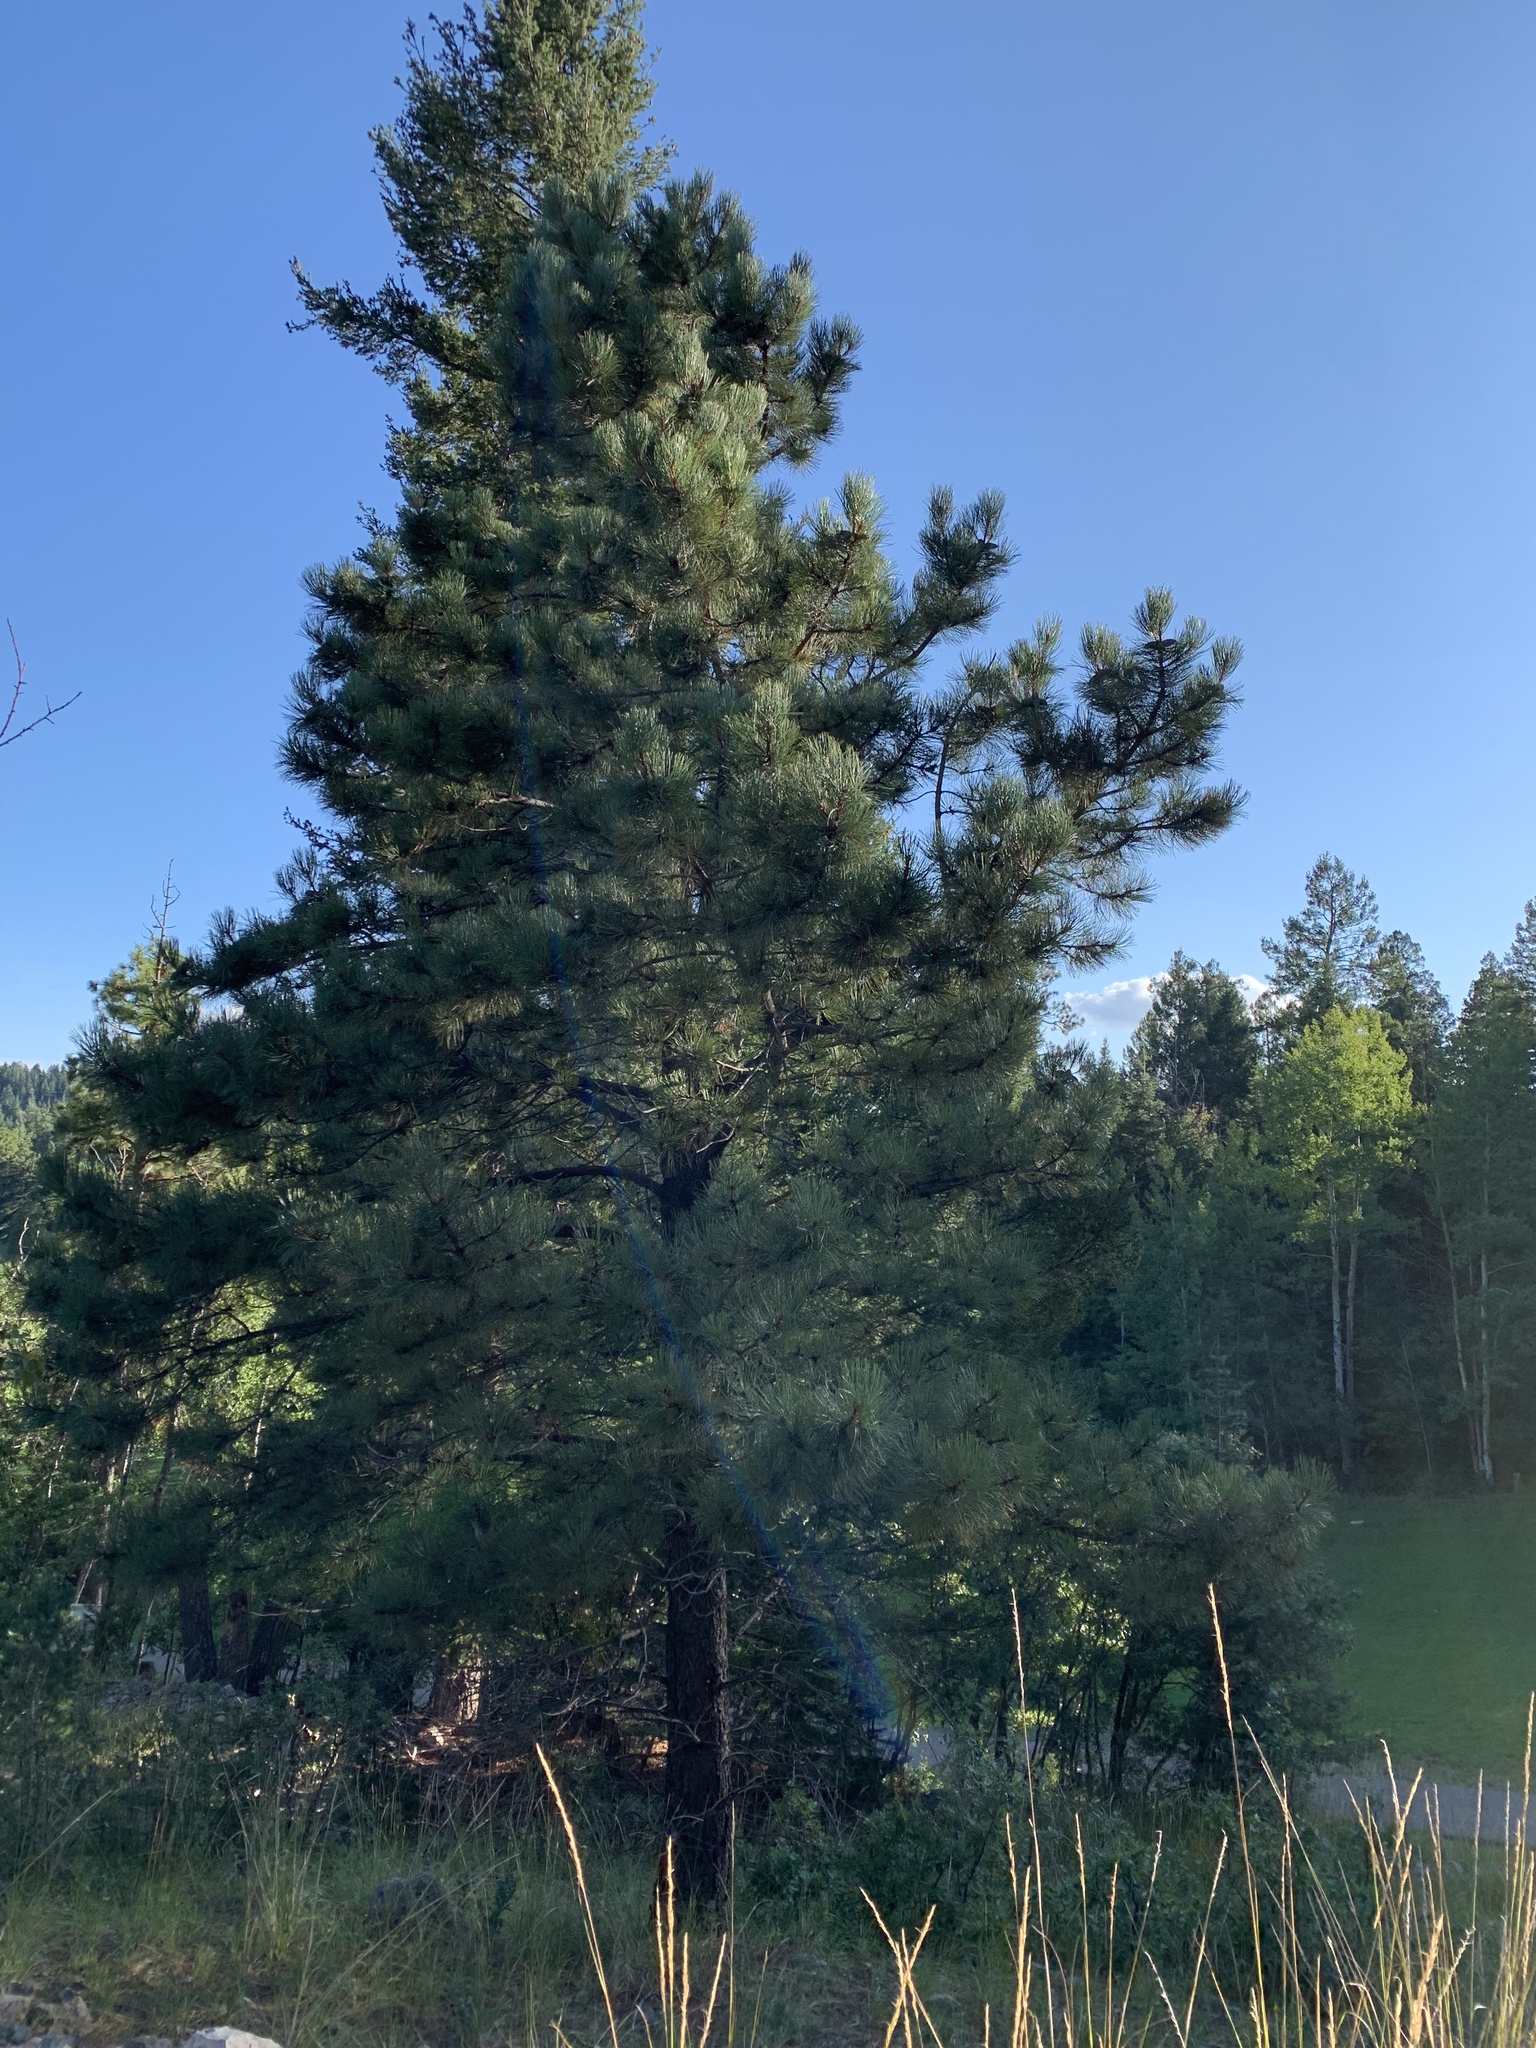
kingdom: Plantae
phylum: Tracheophyta
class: Pinopsida
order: Pinales
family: Pinaceae
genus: Pinus
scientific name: Pinus ponderosa
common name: Western yellow-pine
